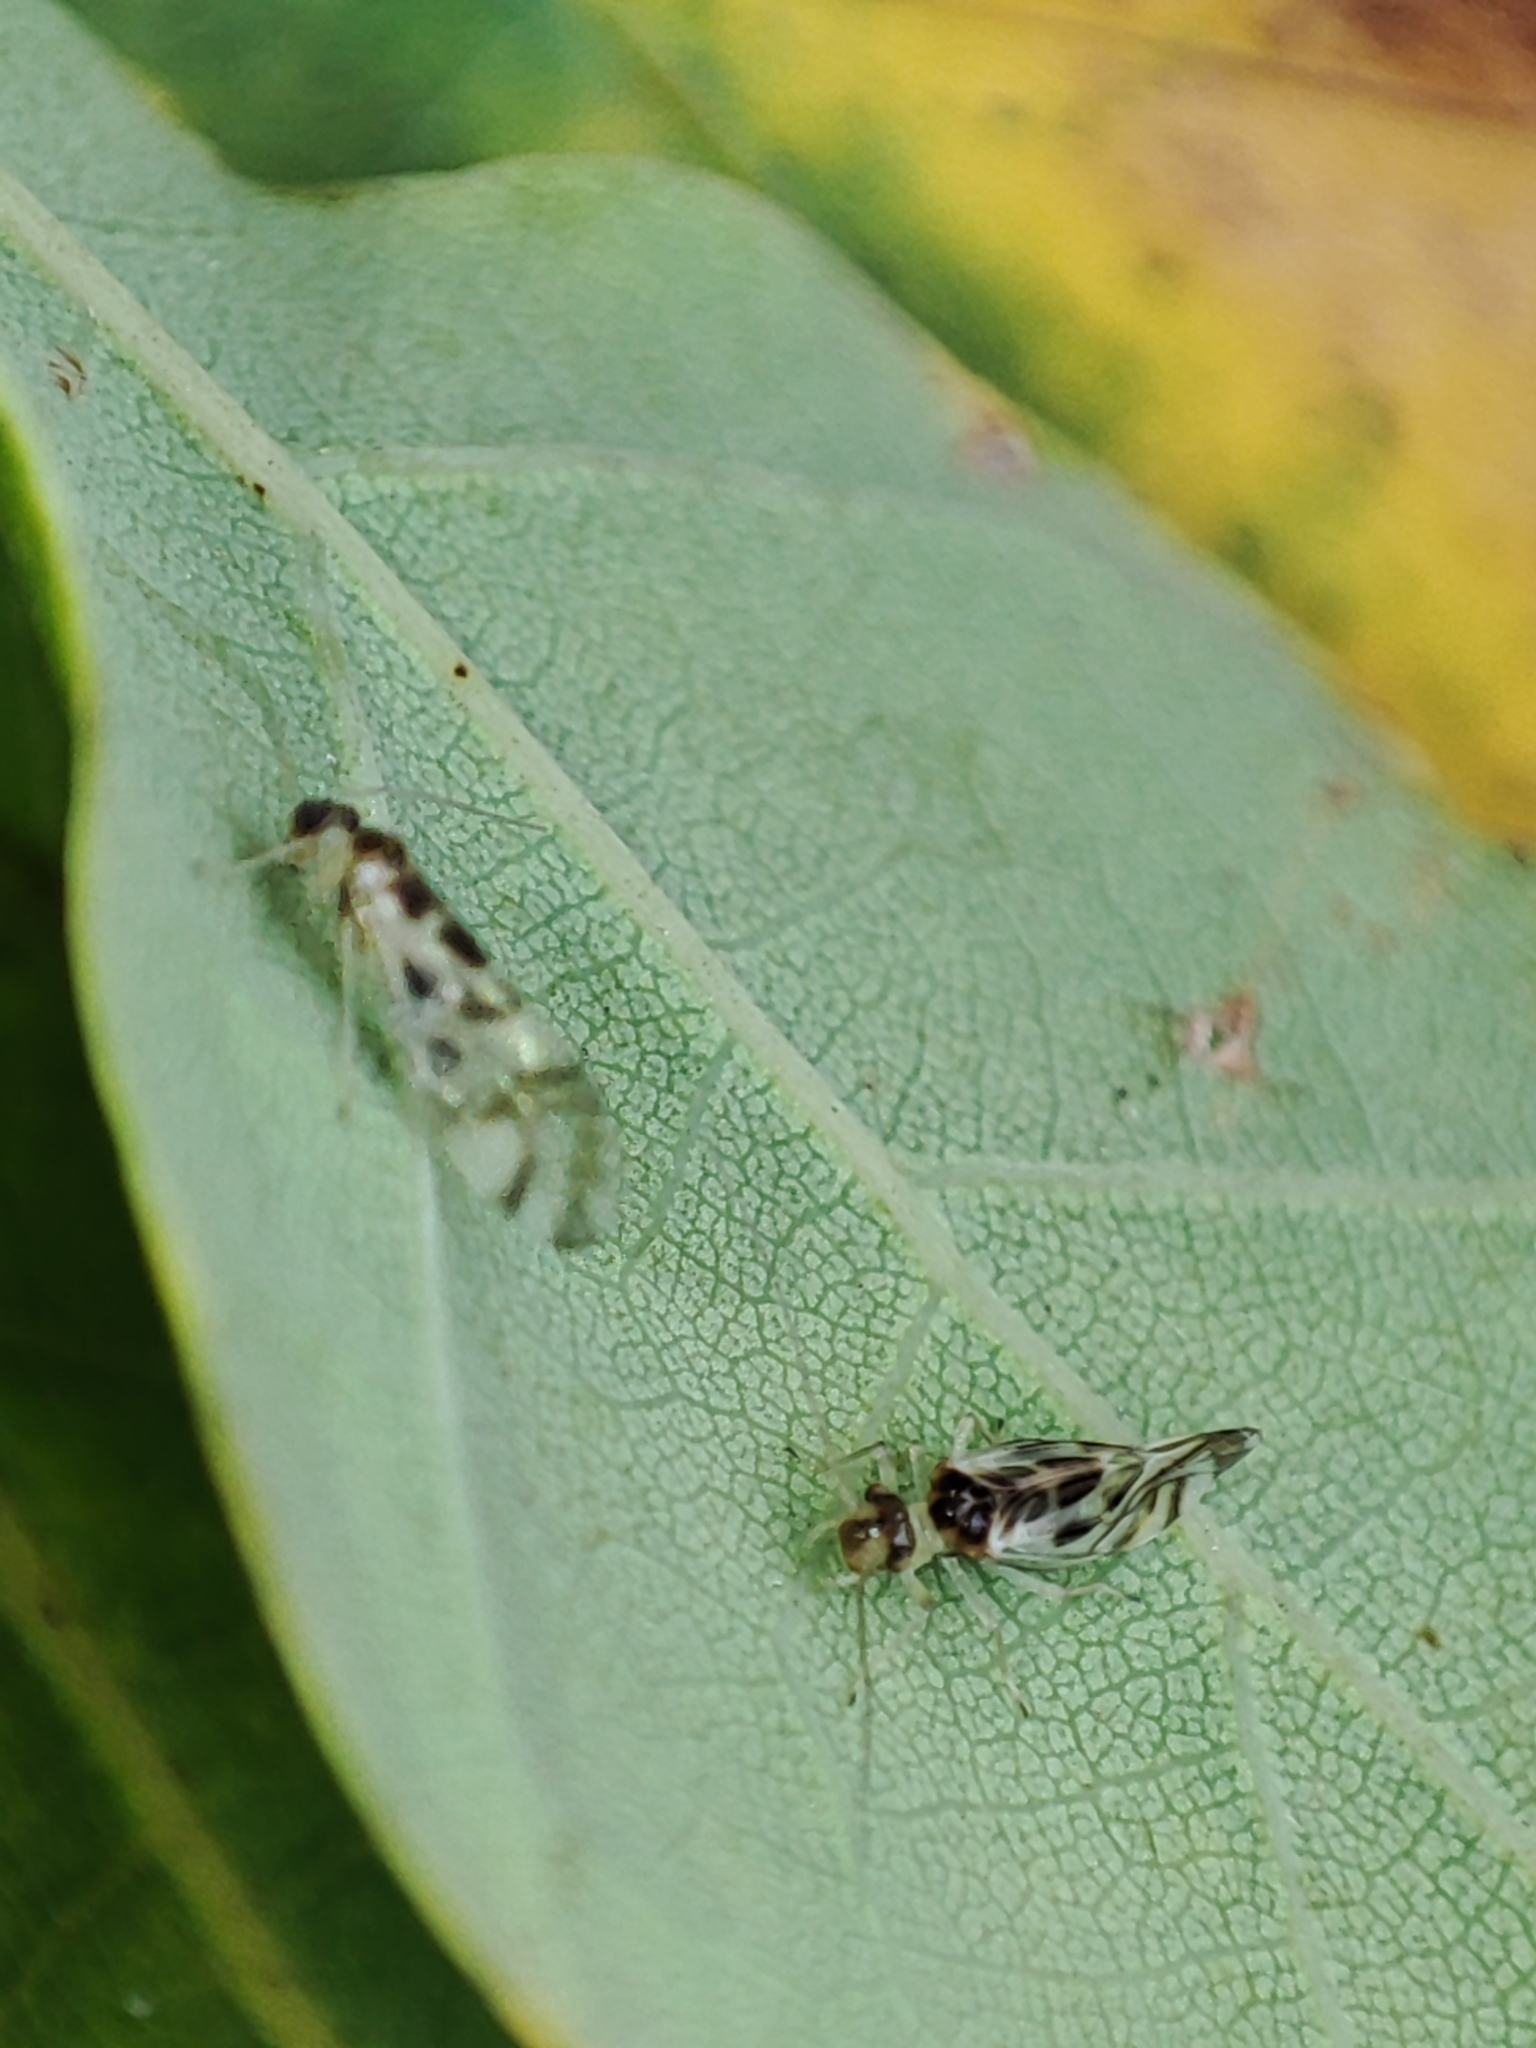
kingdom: Animalia
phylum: Arthropoda
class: Insecta
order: Psocodea
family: Stenopsocidae
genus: Graphopsocus
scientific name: Graphopsocus cruciatus
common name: Lizard bark louse
